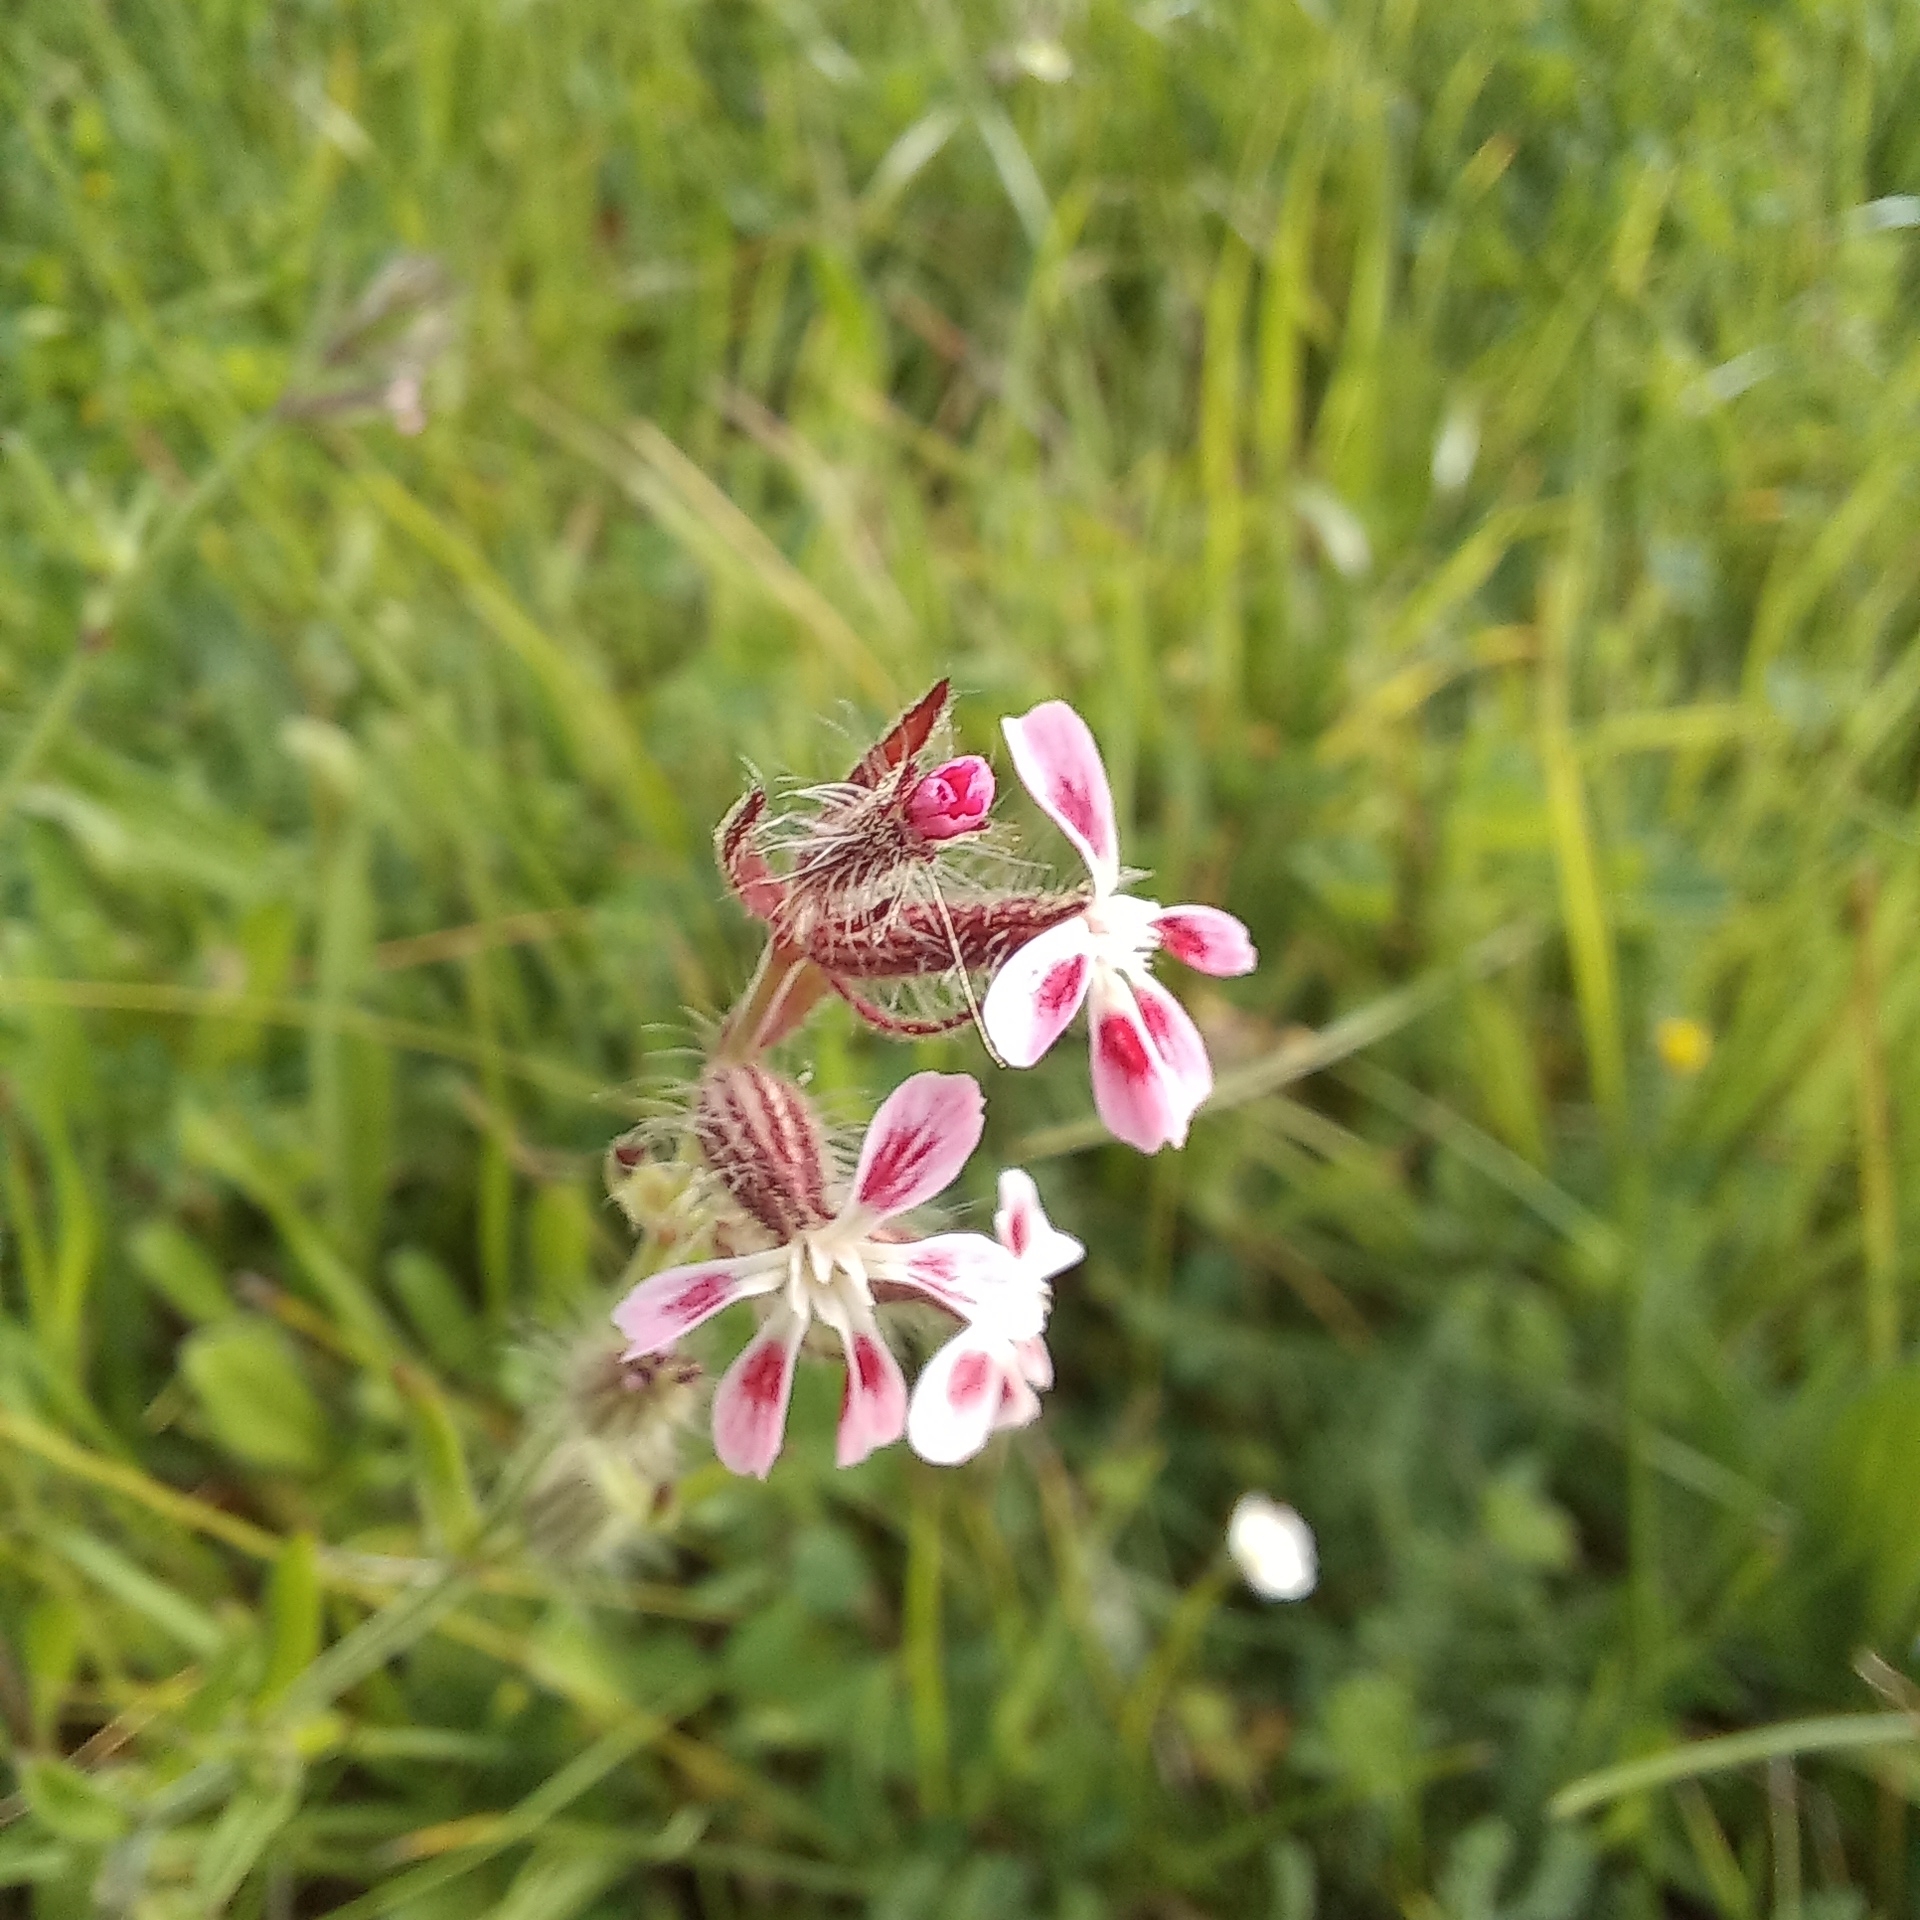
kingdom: Plantae
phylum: Tracheophyta
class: Magnoliopsida
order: Caryophyllales
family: Caryophyllaceae
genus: Silene
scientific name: Silene gallica
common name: Small-flowered catchfly
